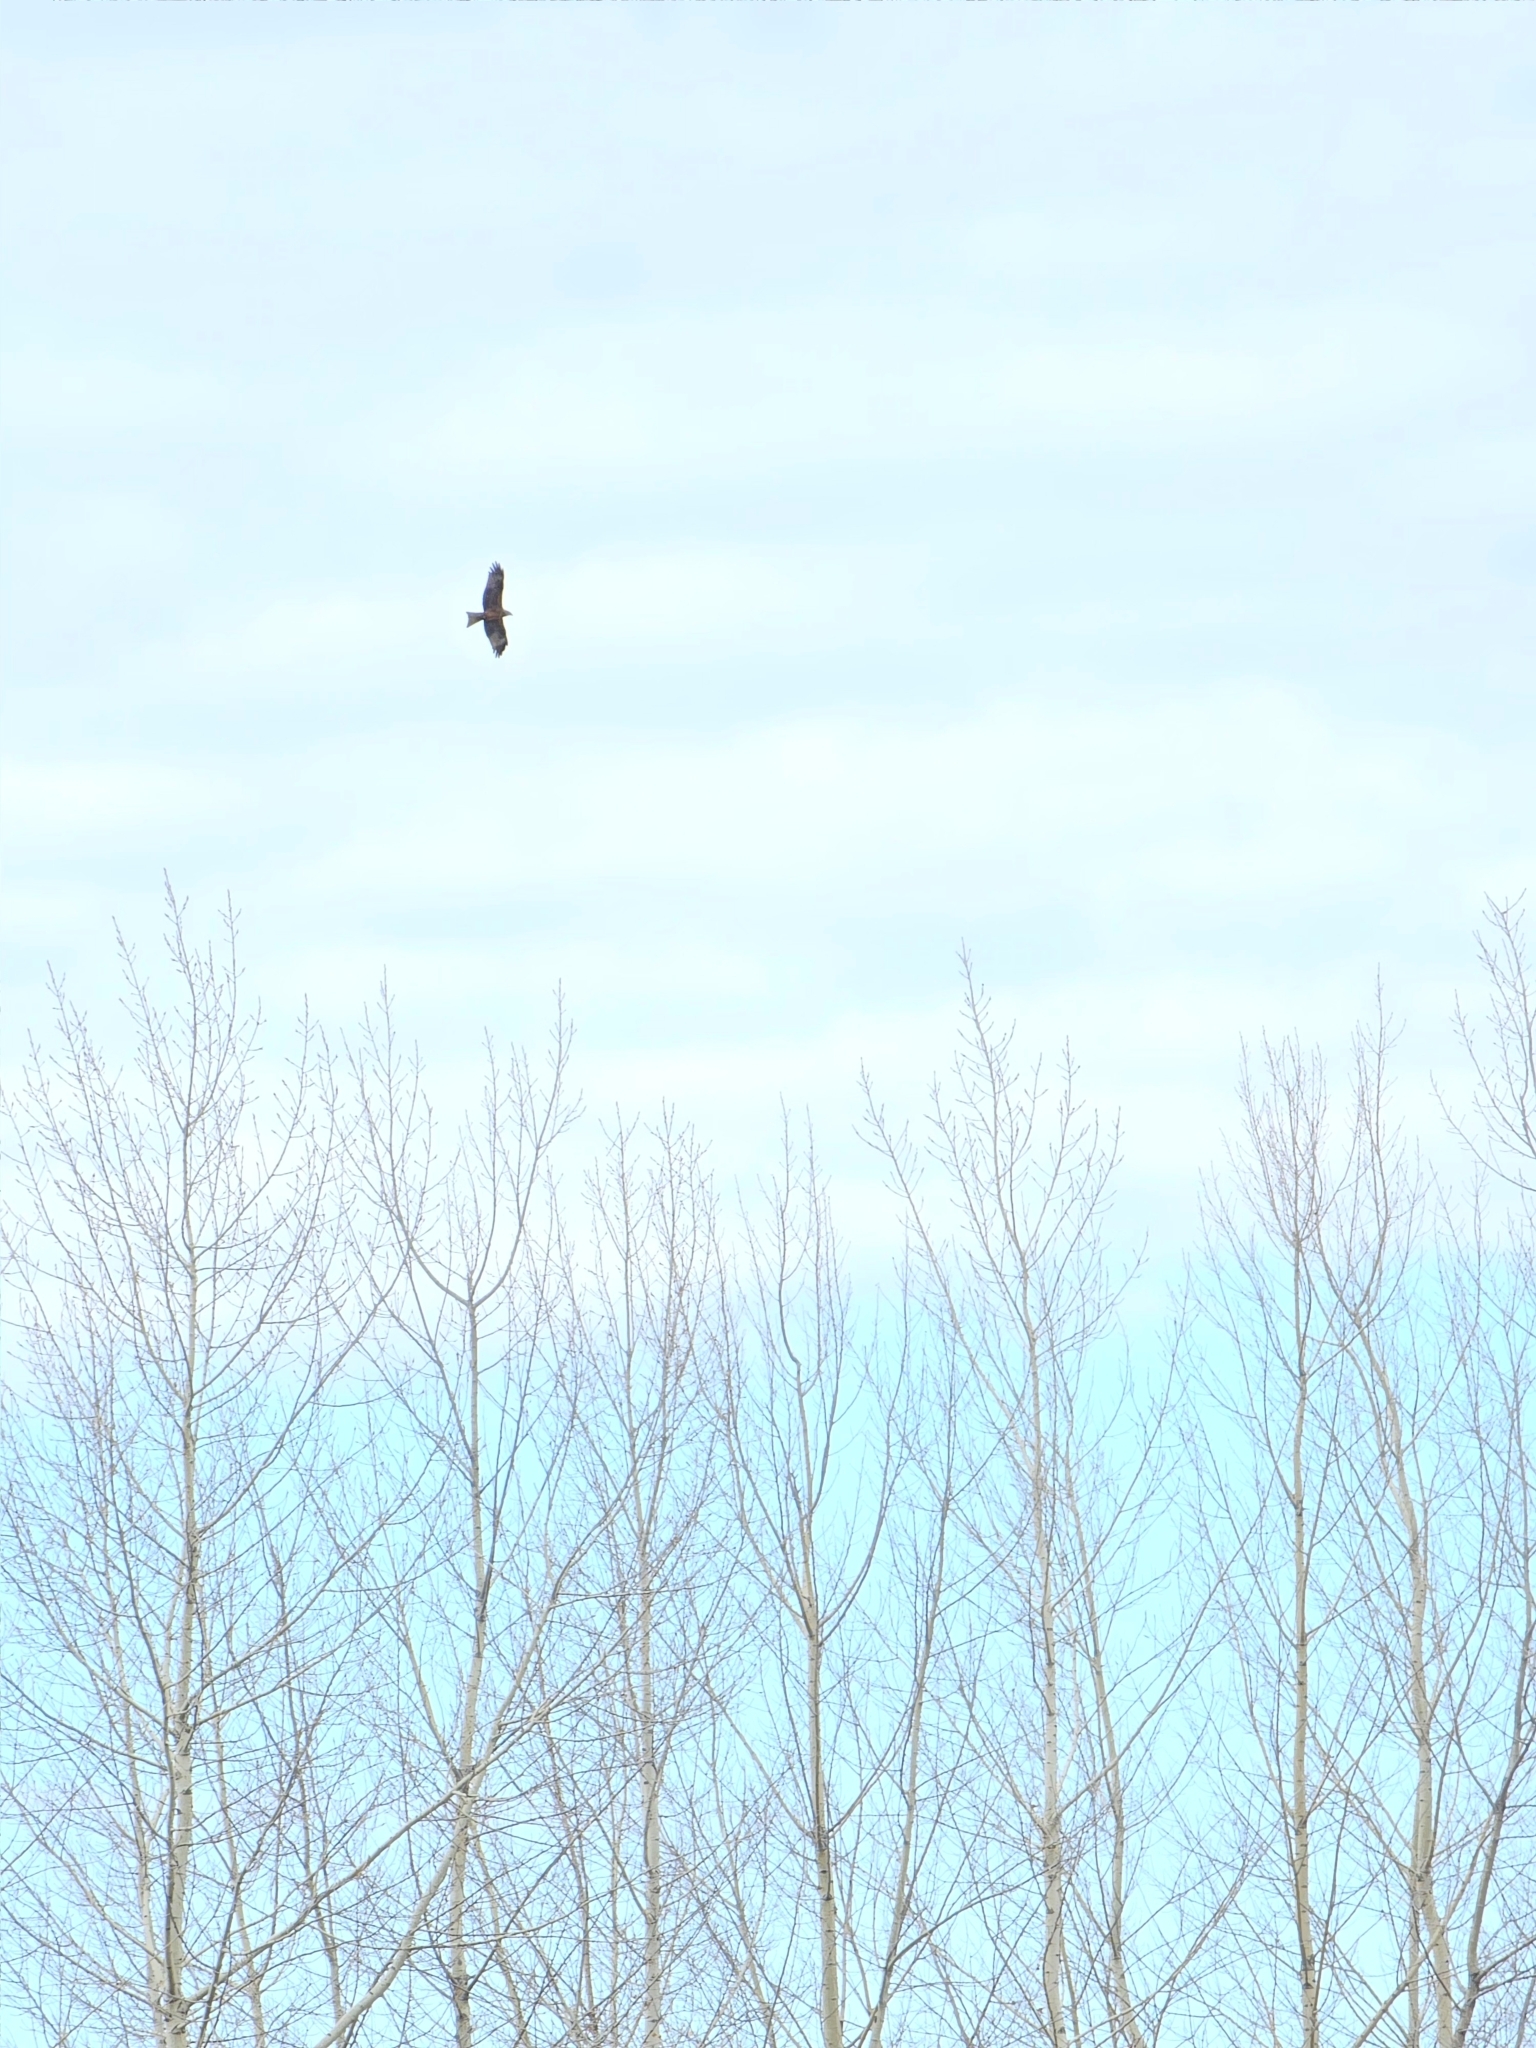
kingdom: Animalia
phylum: Chordata
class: Aves
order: Accipitriformes
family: Accipitridae
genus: Milvus
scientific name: Milvus migrans
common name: Black kite
